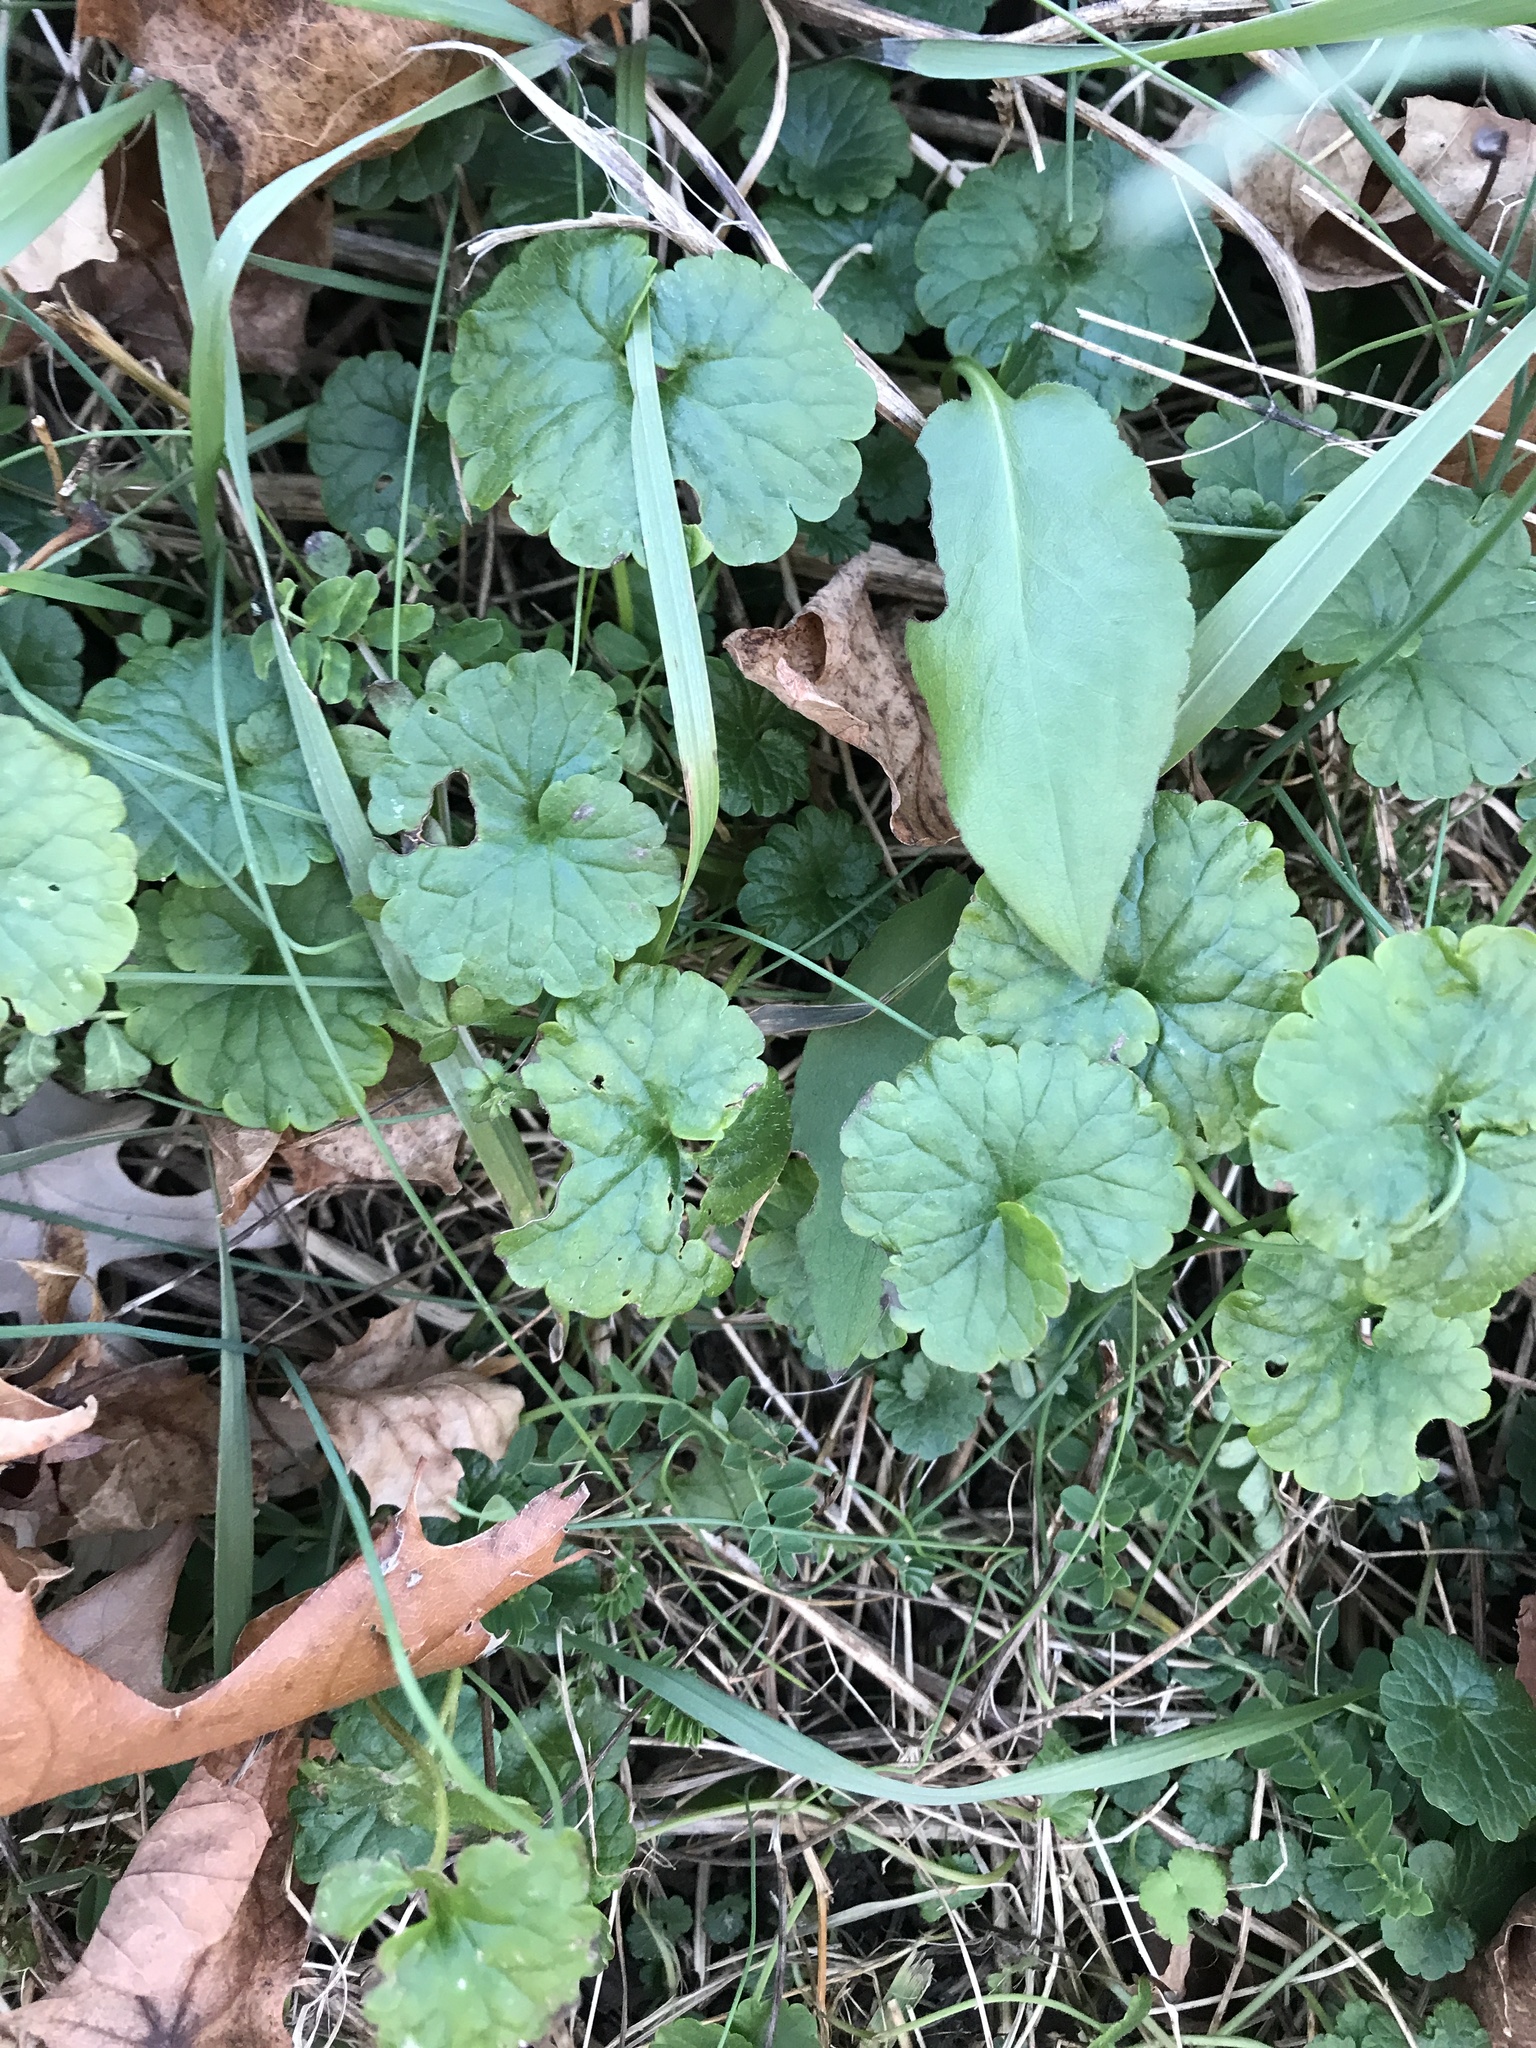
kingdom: Plantae
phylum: Tracheophyta
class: Magnoliopsida
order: Lamiales
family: Lamiaceae
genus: Glechoma
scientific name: Glechoma hederacea
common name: Ground ivy
